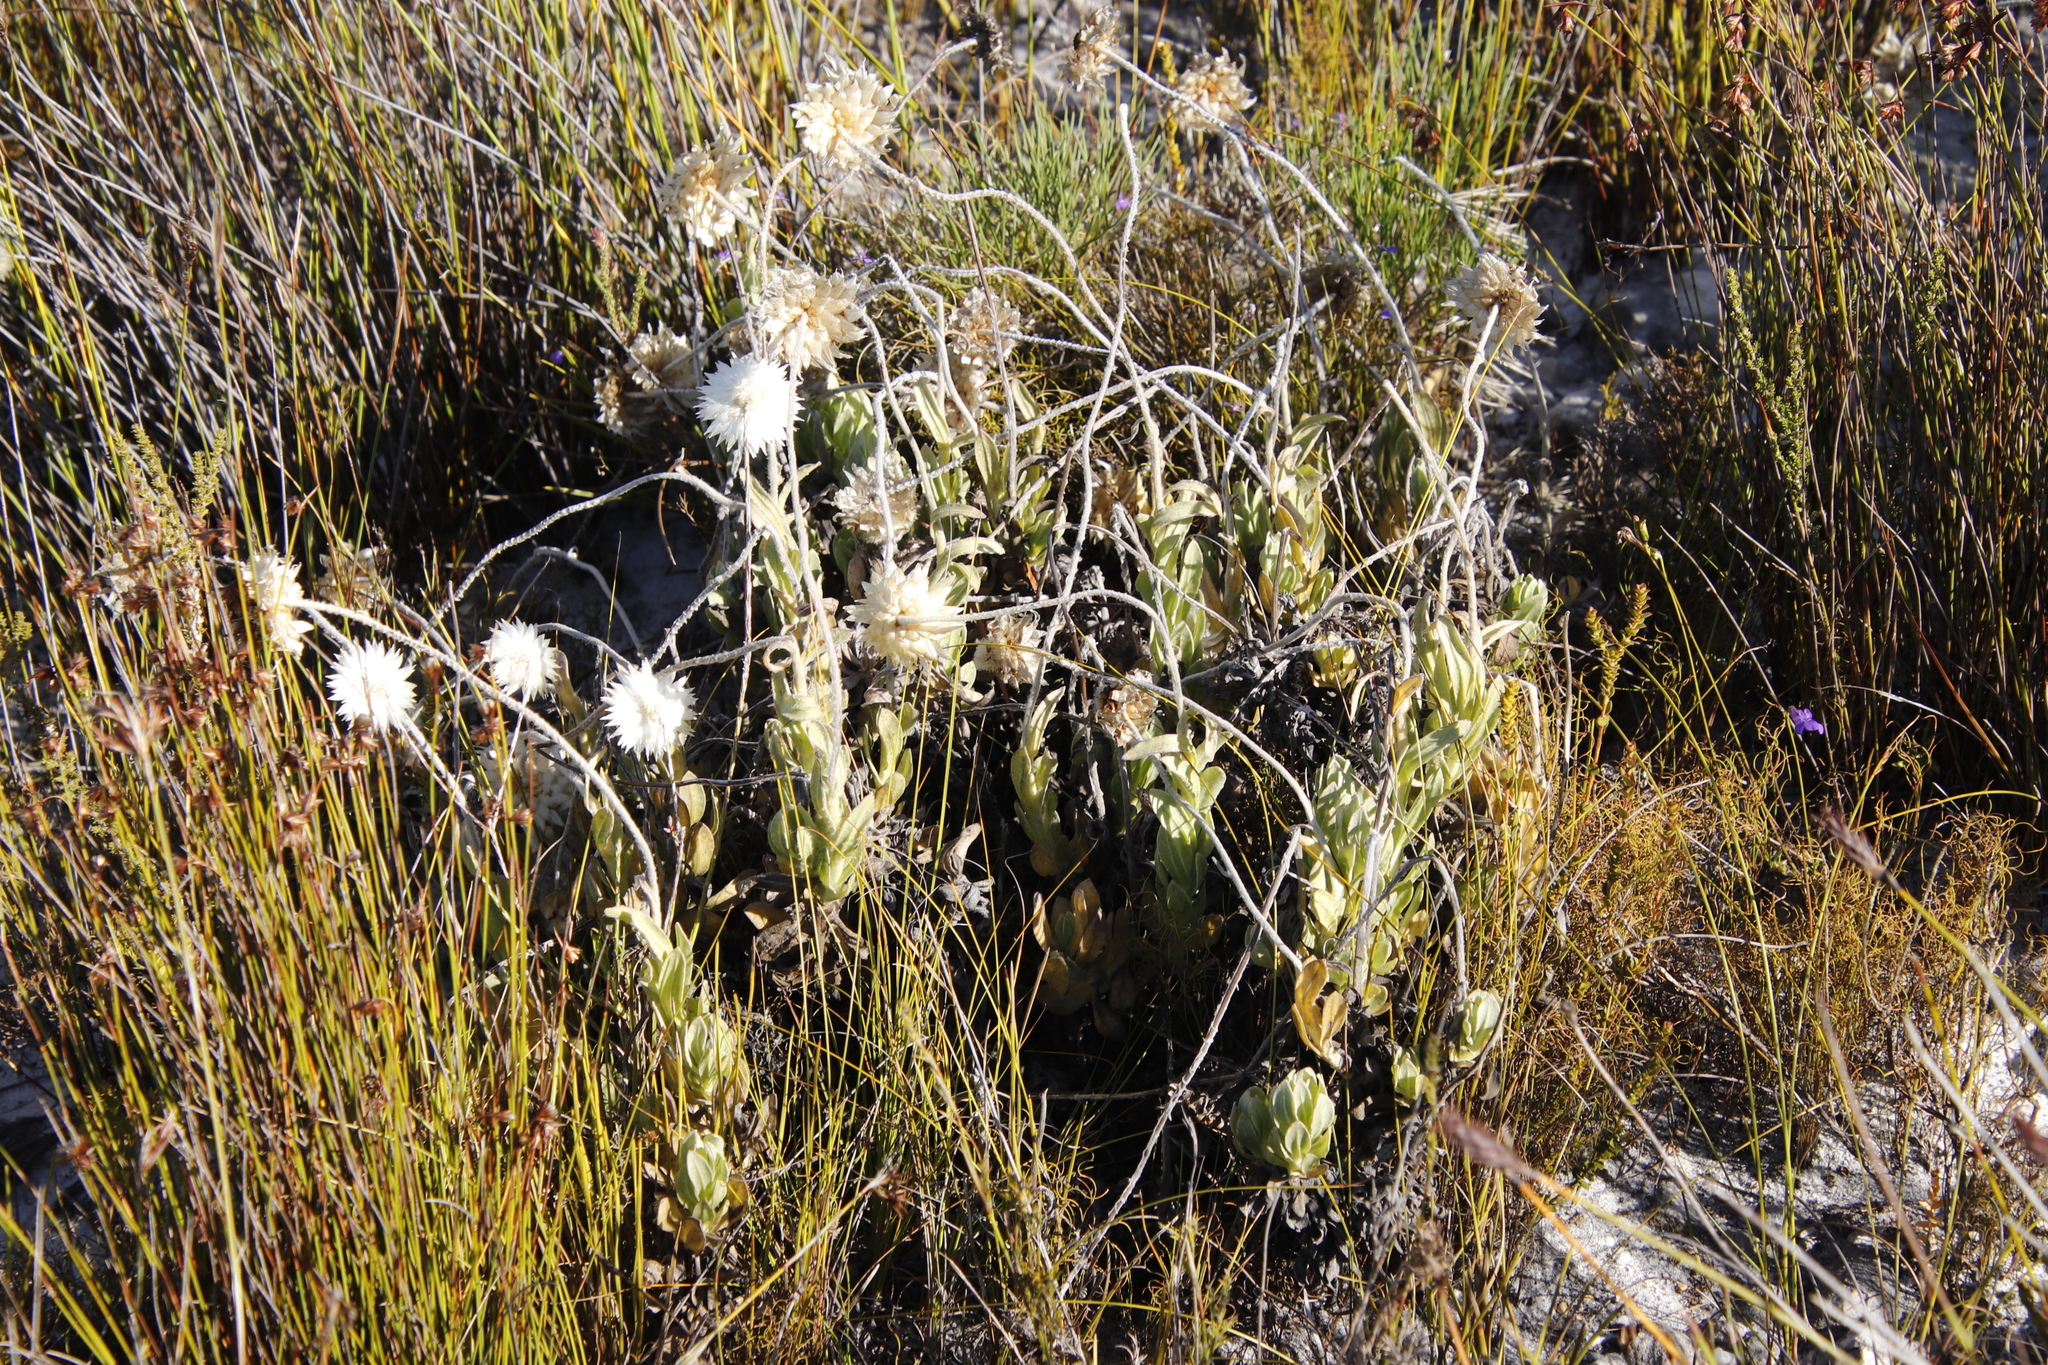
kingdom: Plantae
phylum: Tracheophyta
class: Magnoliopsida
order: Asterales
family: Asteraceae
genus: Syncarpha
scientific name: Syncarpha speciosissima
